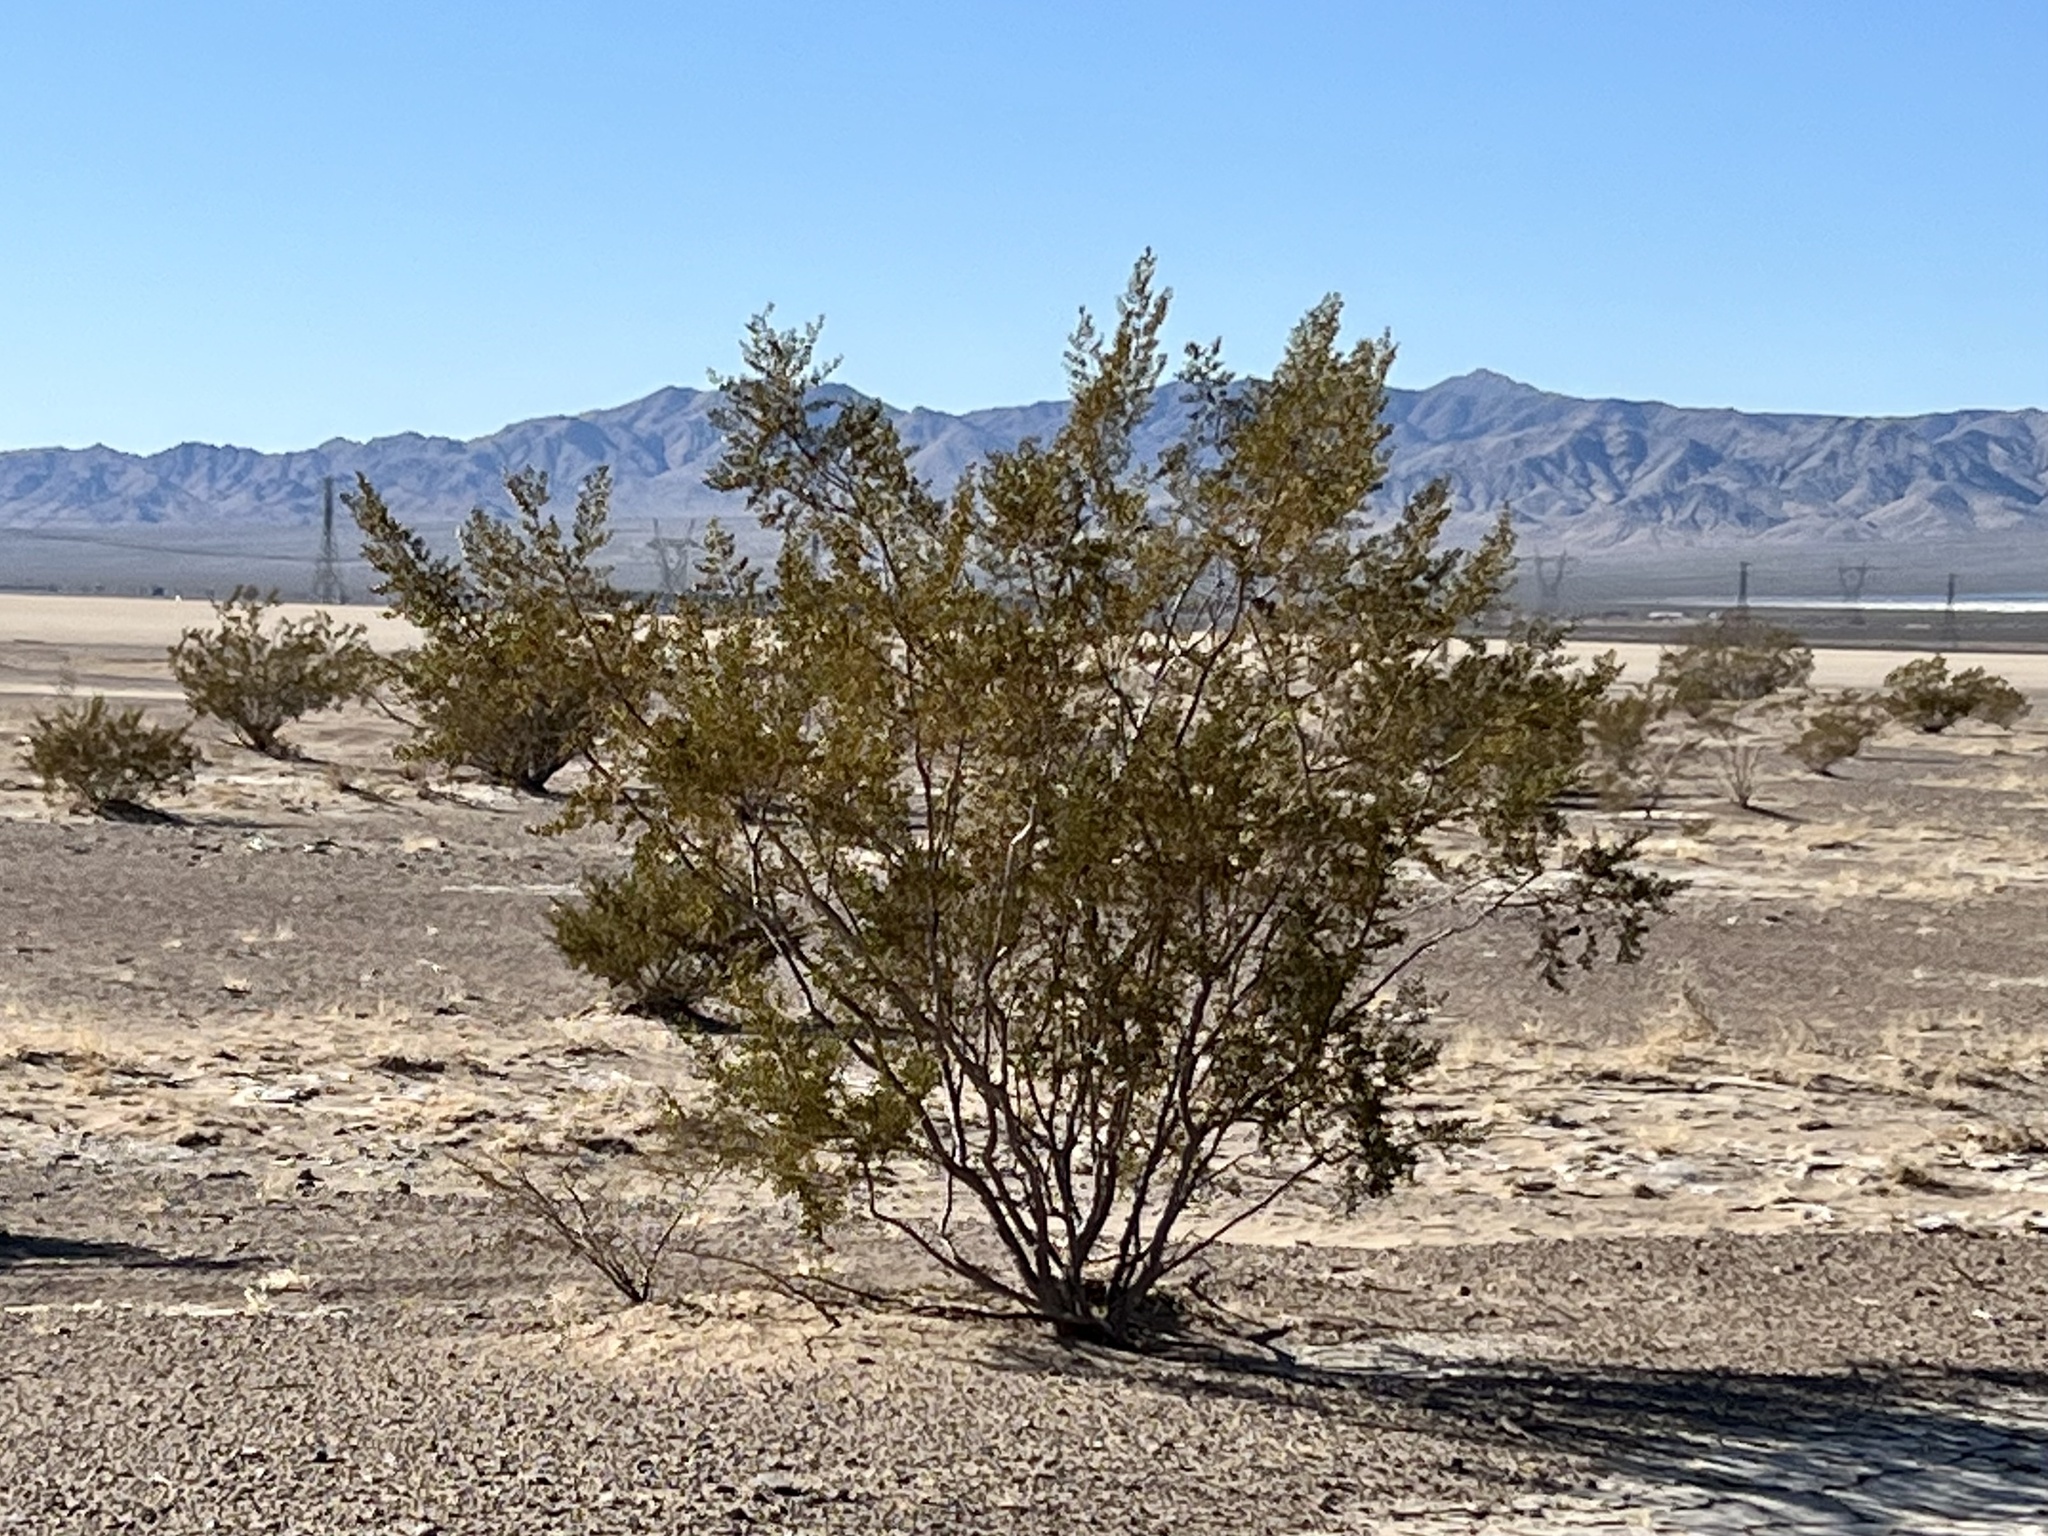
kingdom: Plantae
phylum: Tracheophyta
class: Magnoliopsida
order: Zygophyllales
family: Zygophyllaceae
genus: Larrea
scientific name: Larrea tridentata
